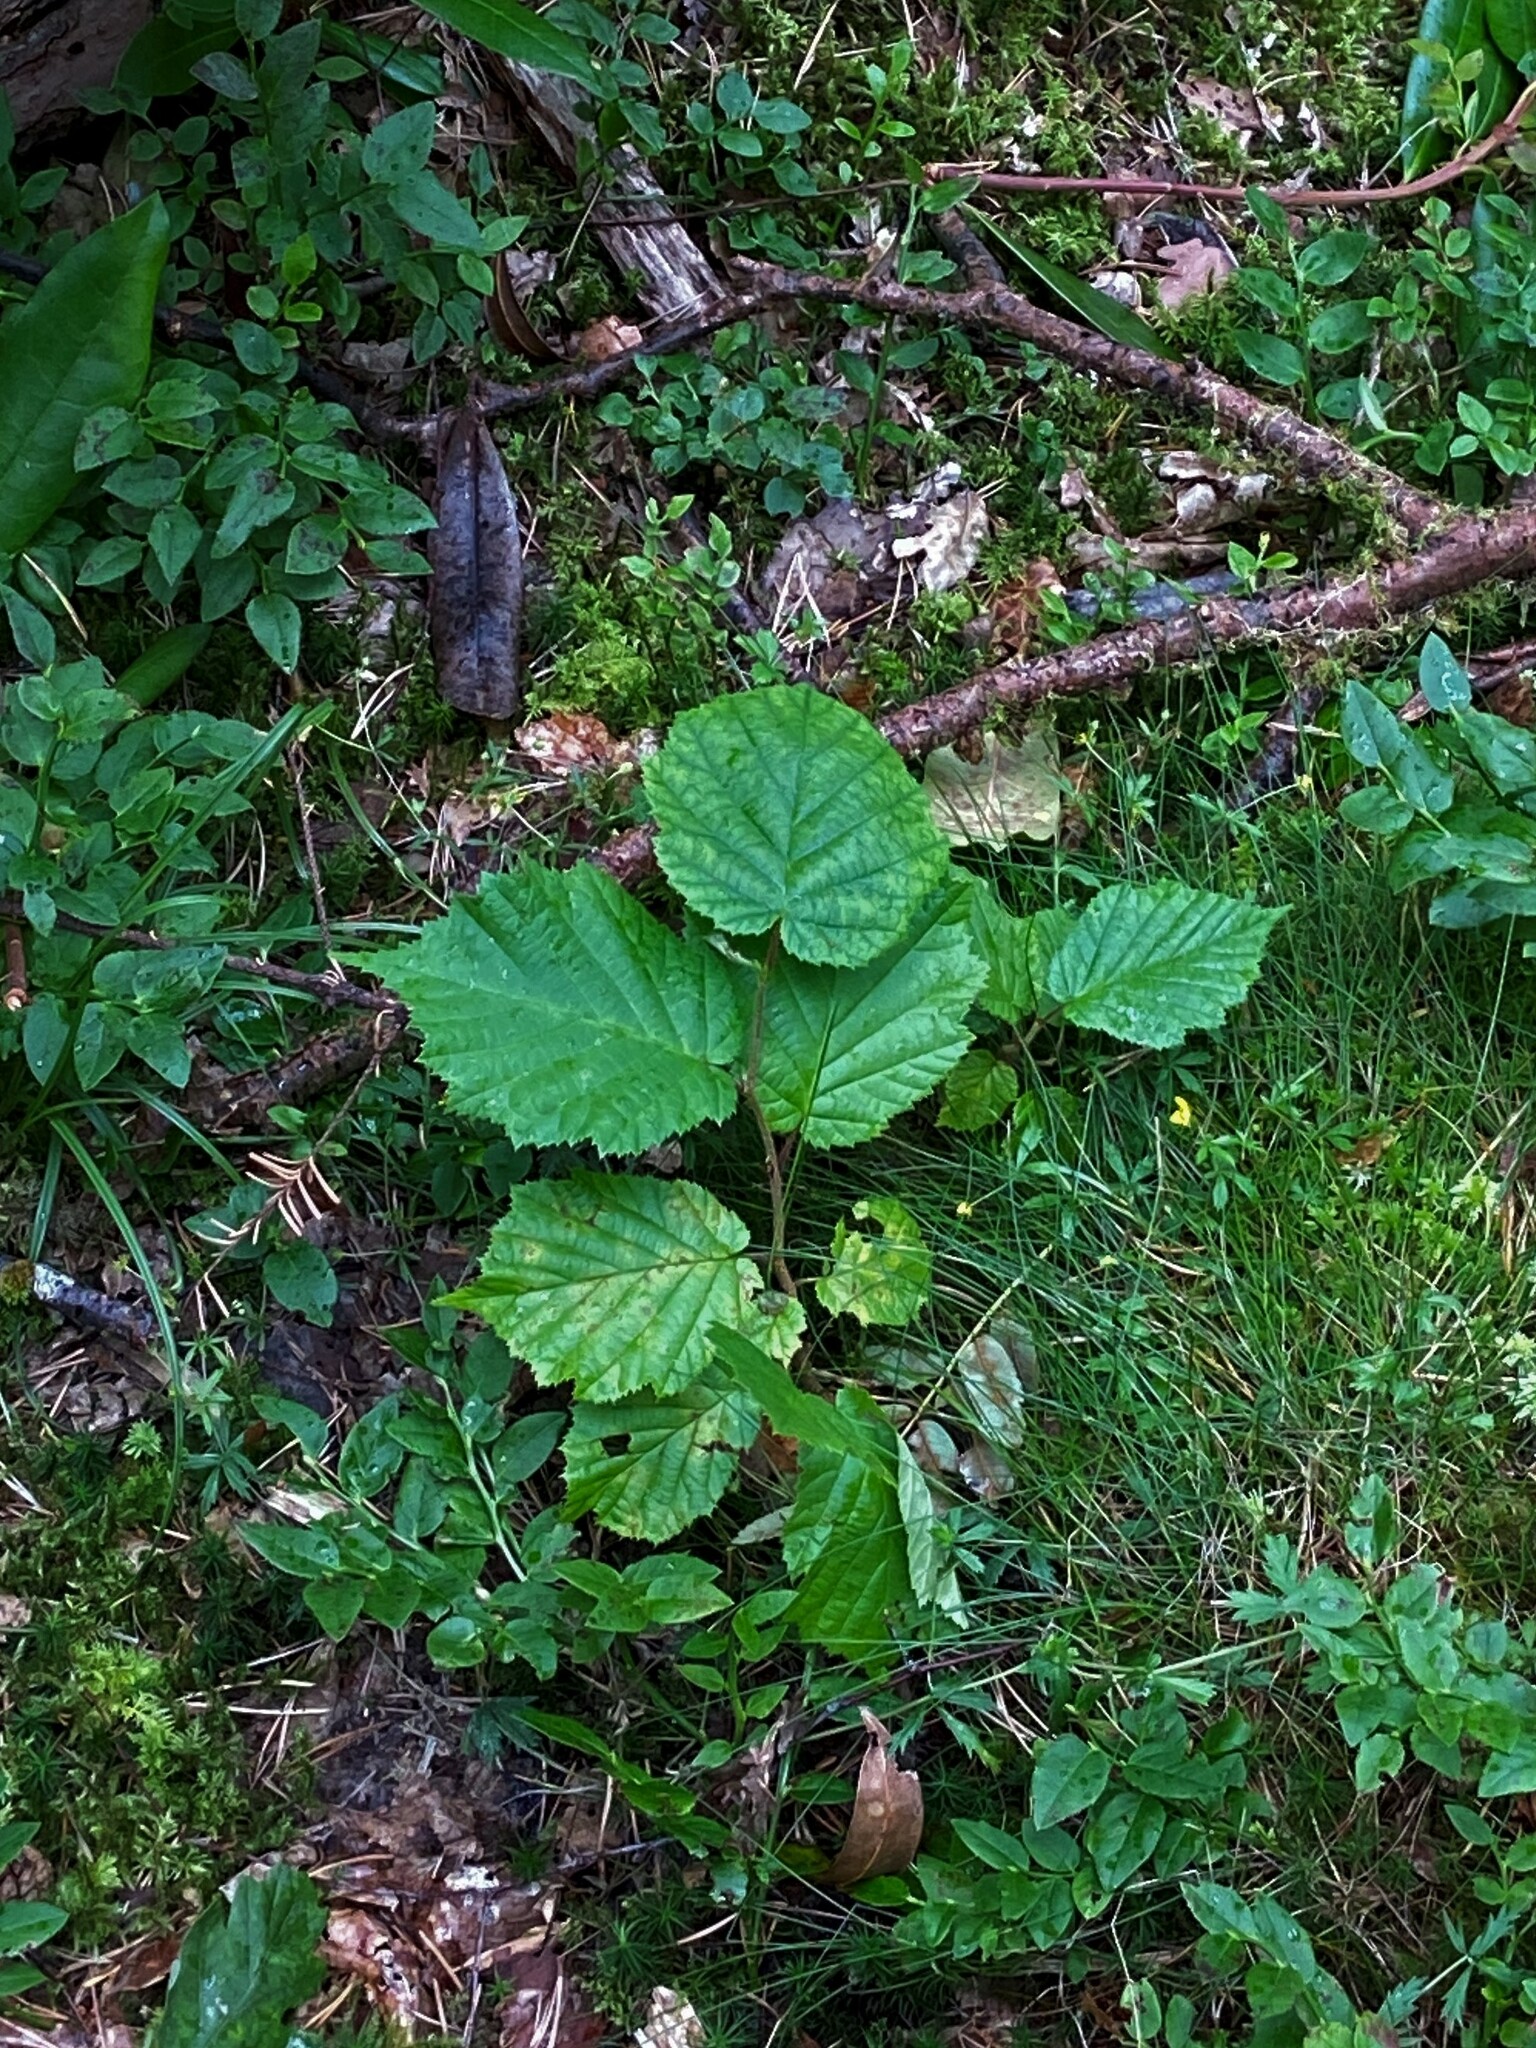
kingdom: Plantae
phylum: Tracheophyta
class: Magnoliopsida
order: Fagales
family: Betulaceae
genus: Corylus
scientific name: Corylus avellana
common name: European hazel
